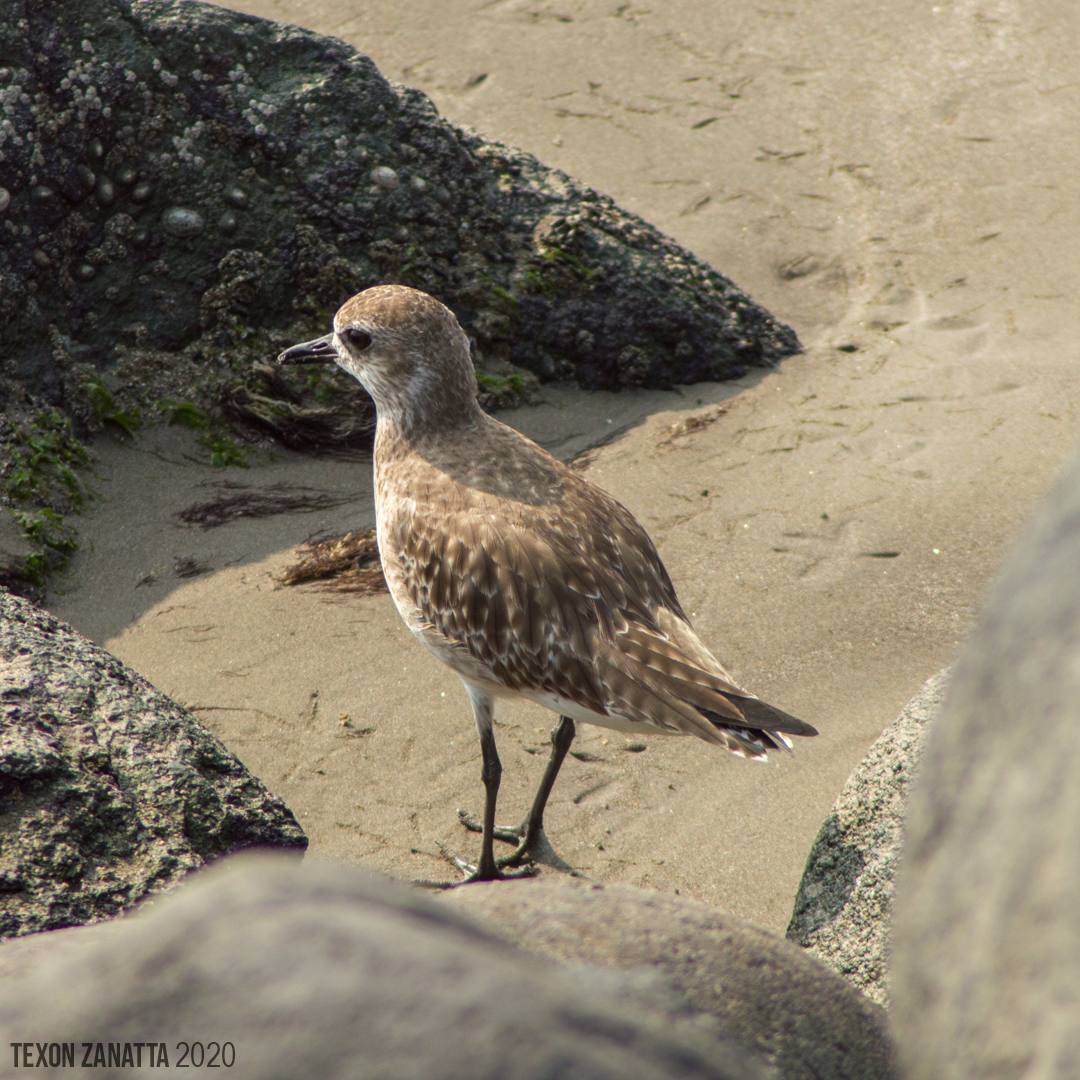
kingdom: Animalia
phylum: Chordata
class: Aves
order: Charadriiformes
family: Charadriidae
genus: Pluvialis
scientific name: Pluvialis squatarola
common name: Grey plover
